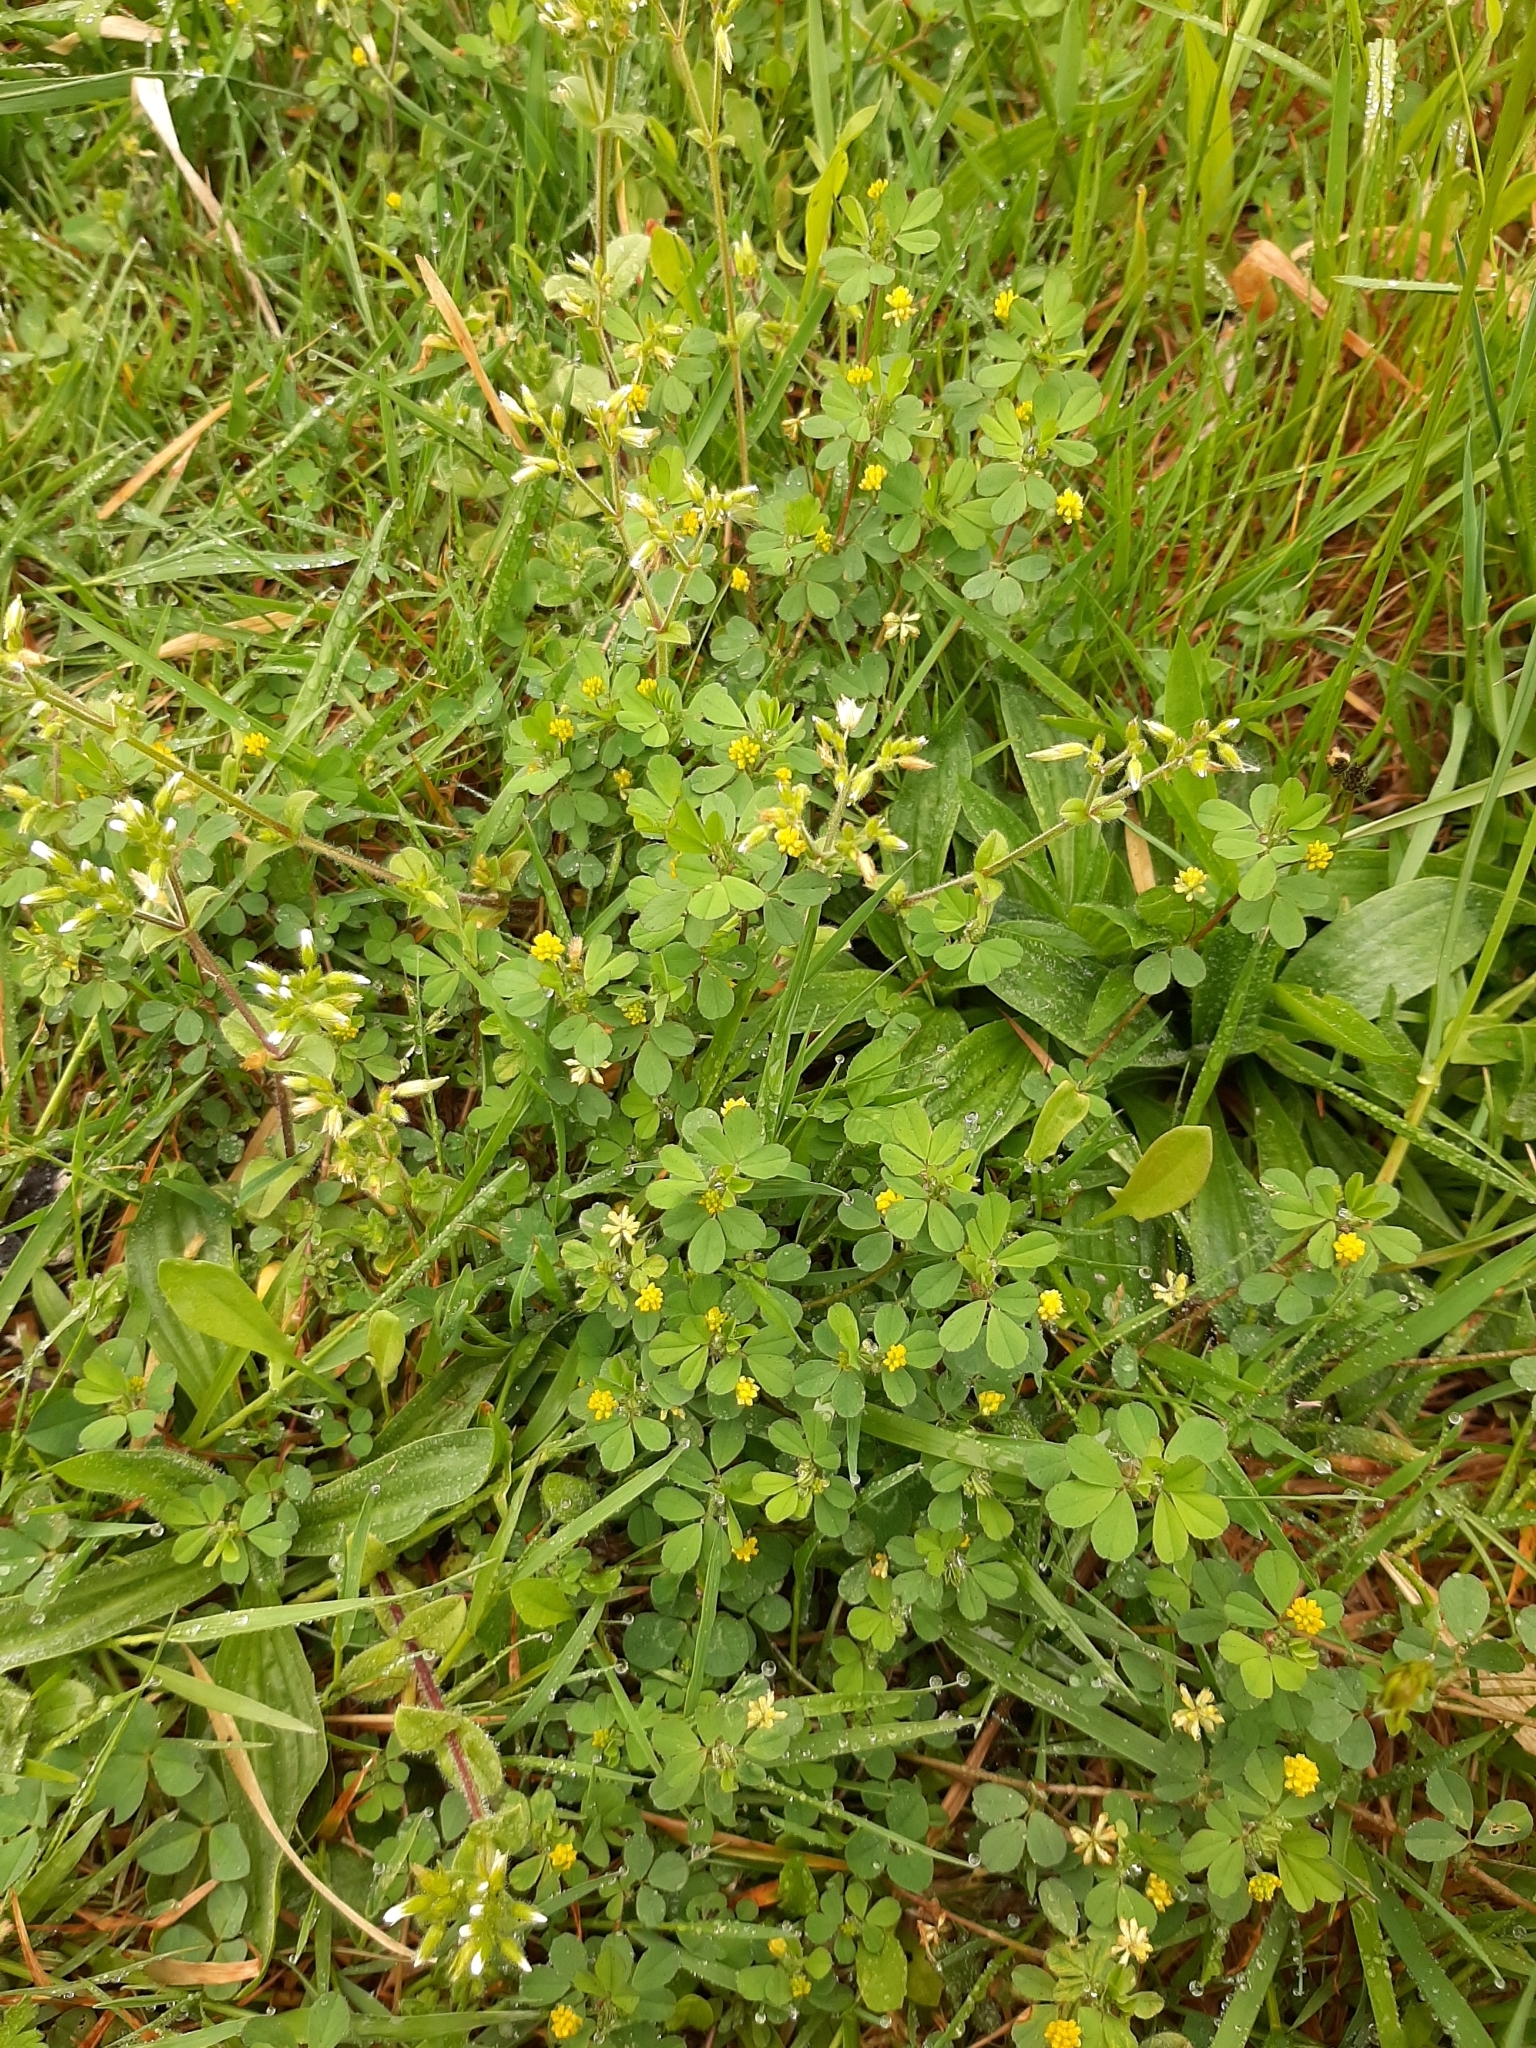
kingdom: Plantae
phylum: Tracheophyta
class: Magnoliopsida
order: Fabales
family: Fabaceae
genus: Trifolium
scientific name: Trifolium dubium
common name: Suckling clover
